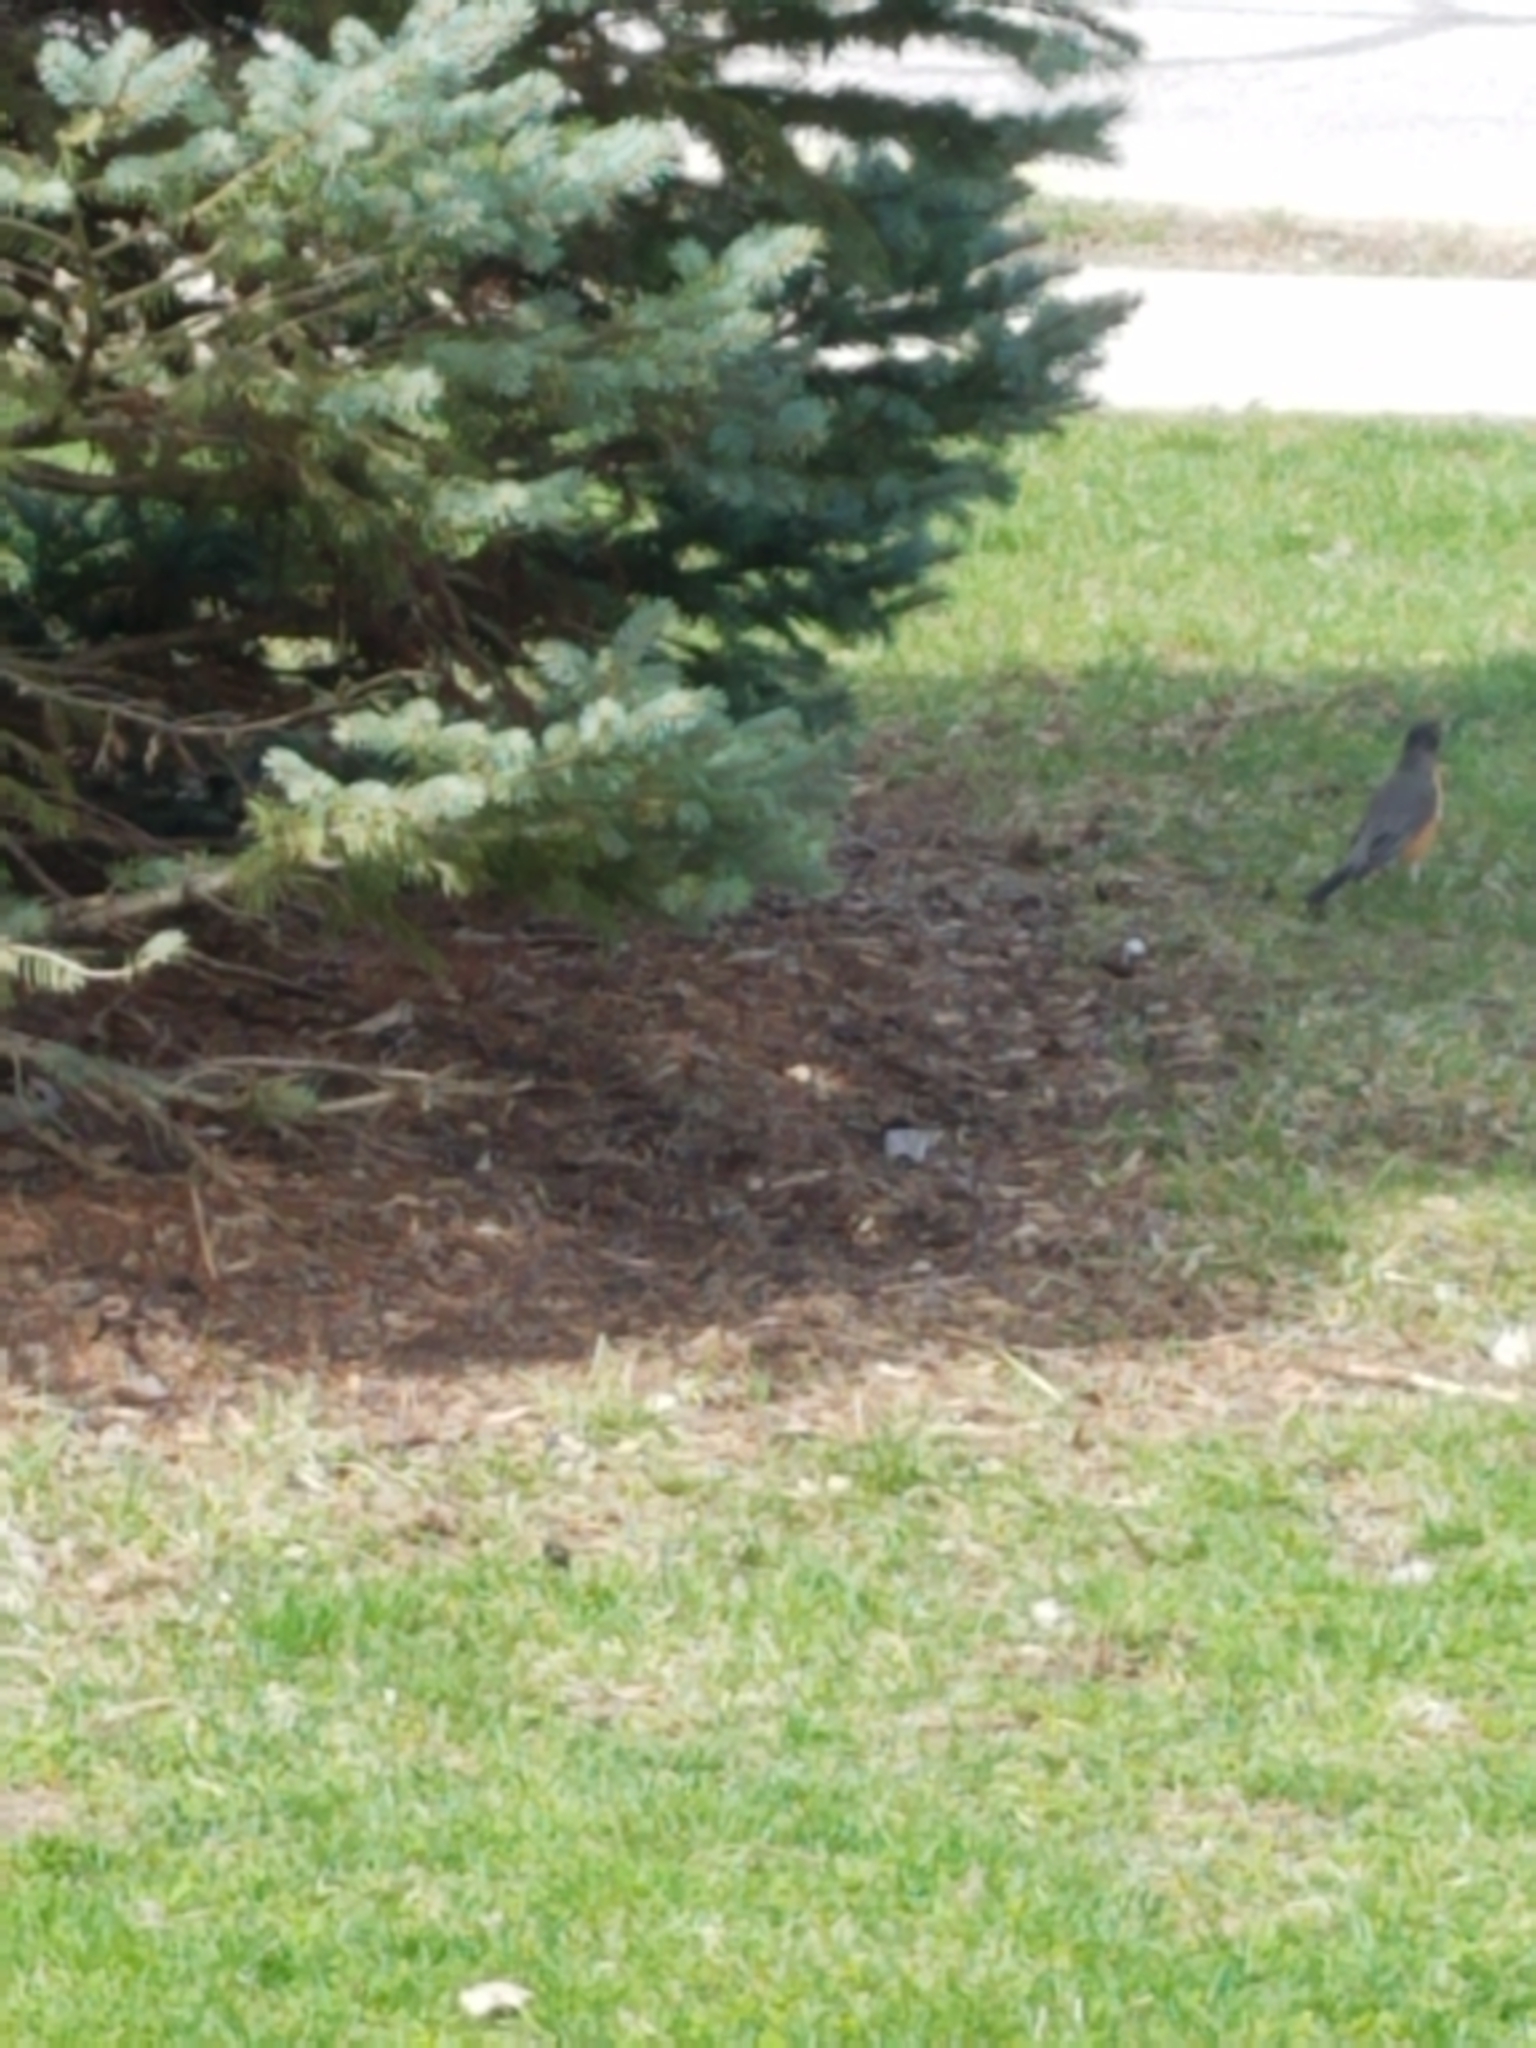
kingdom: Animalia
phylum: Chordata
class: Aves
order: Passeriformes
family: Turdidae
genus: Turdus
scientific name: Turdus migratorius
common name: American robin
